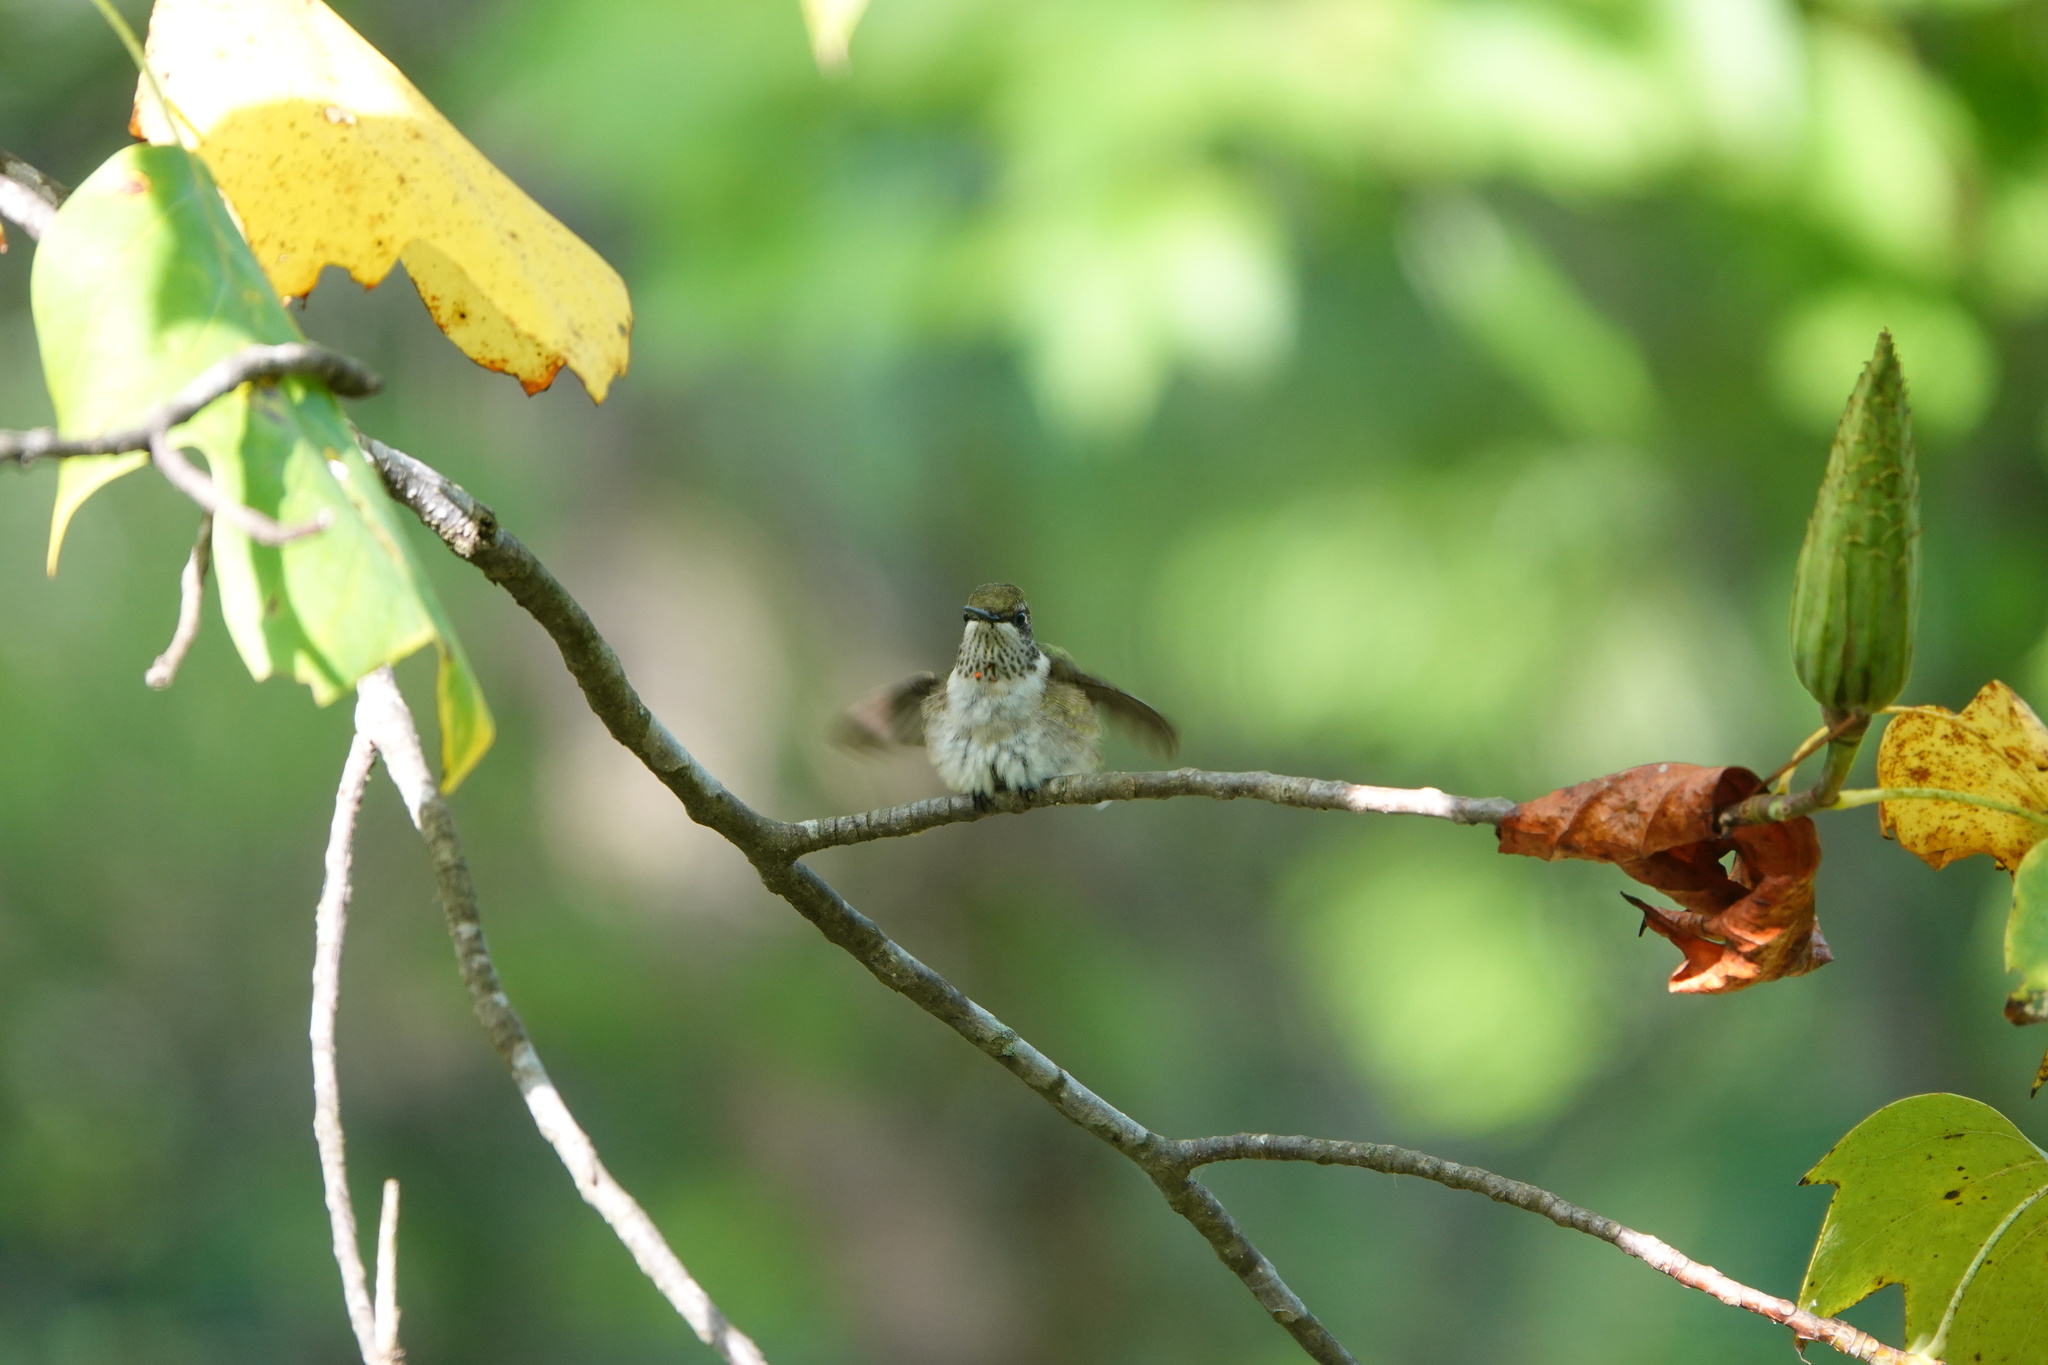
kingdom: Animalia
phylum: Chordata
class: Aves
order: Apodiformes
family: Trochilidae
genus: Archilochus
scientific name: Archilochus colubris
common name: Ruby-throated hummingbird
